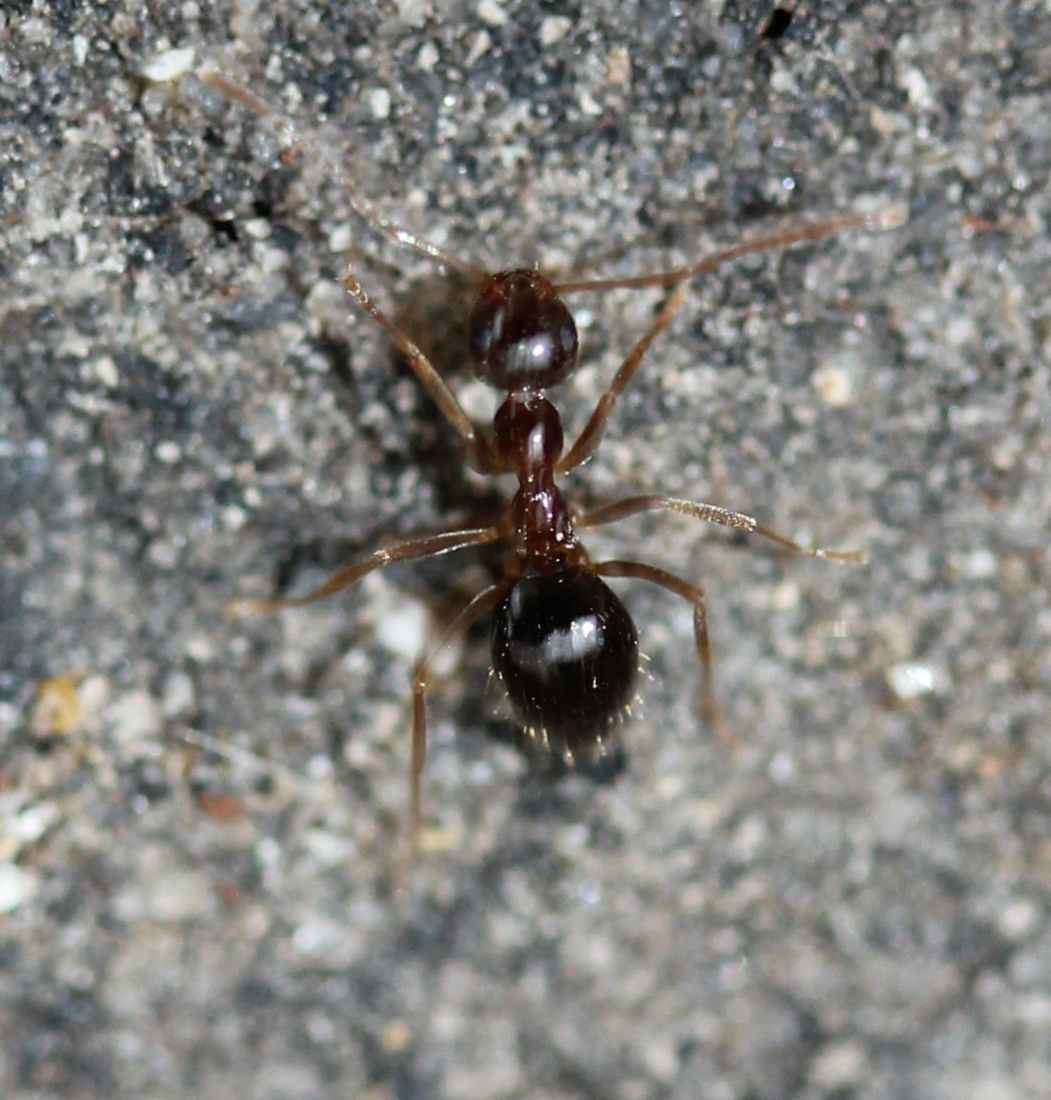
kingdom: Animalia
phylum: Arthropoda
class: Insecta
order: Hymenoptera
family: Formicidae
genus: Prenolepis
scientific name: Prenolepis imparis
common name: Small honey ant
